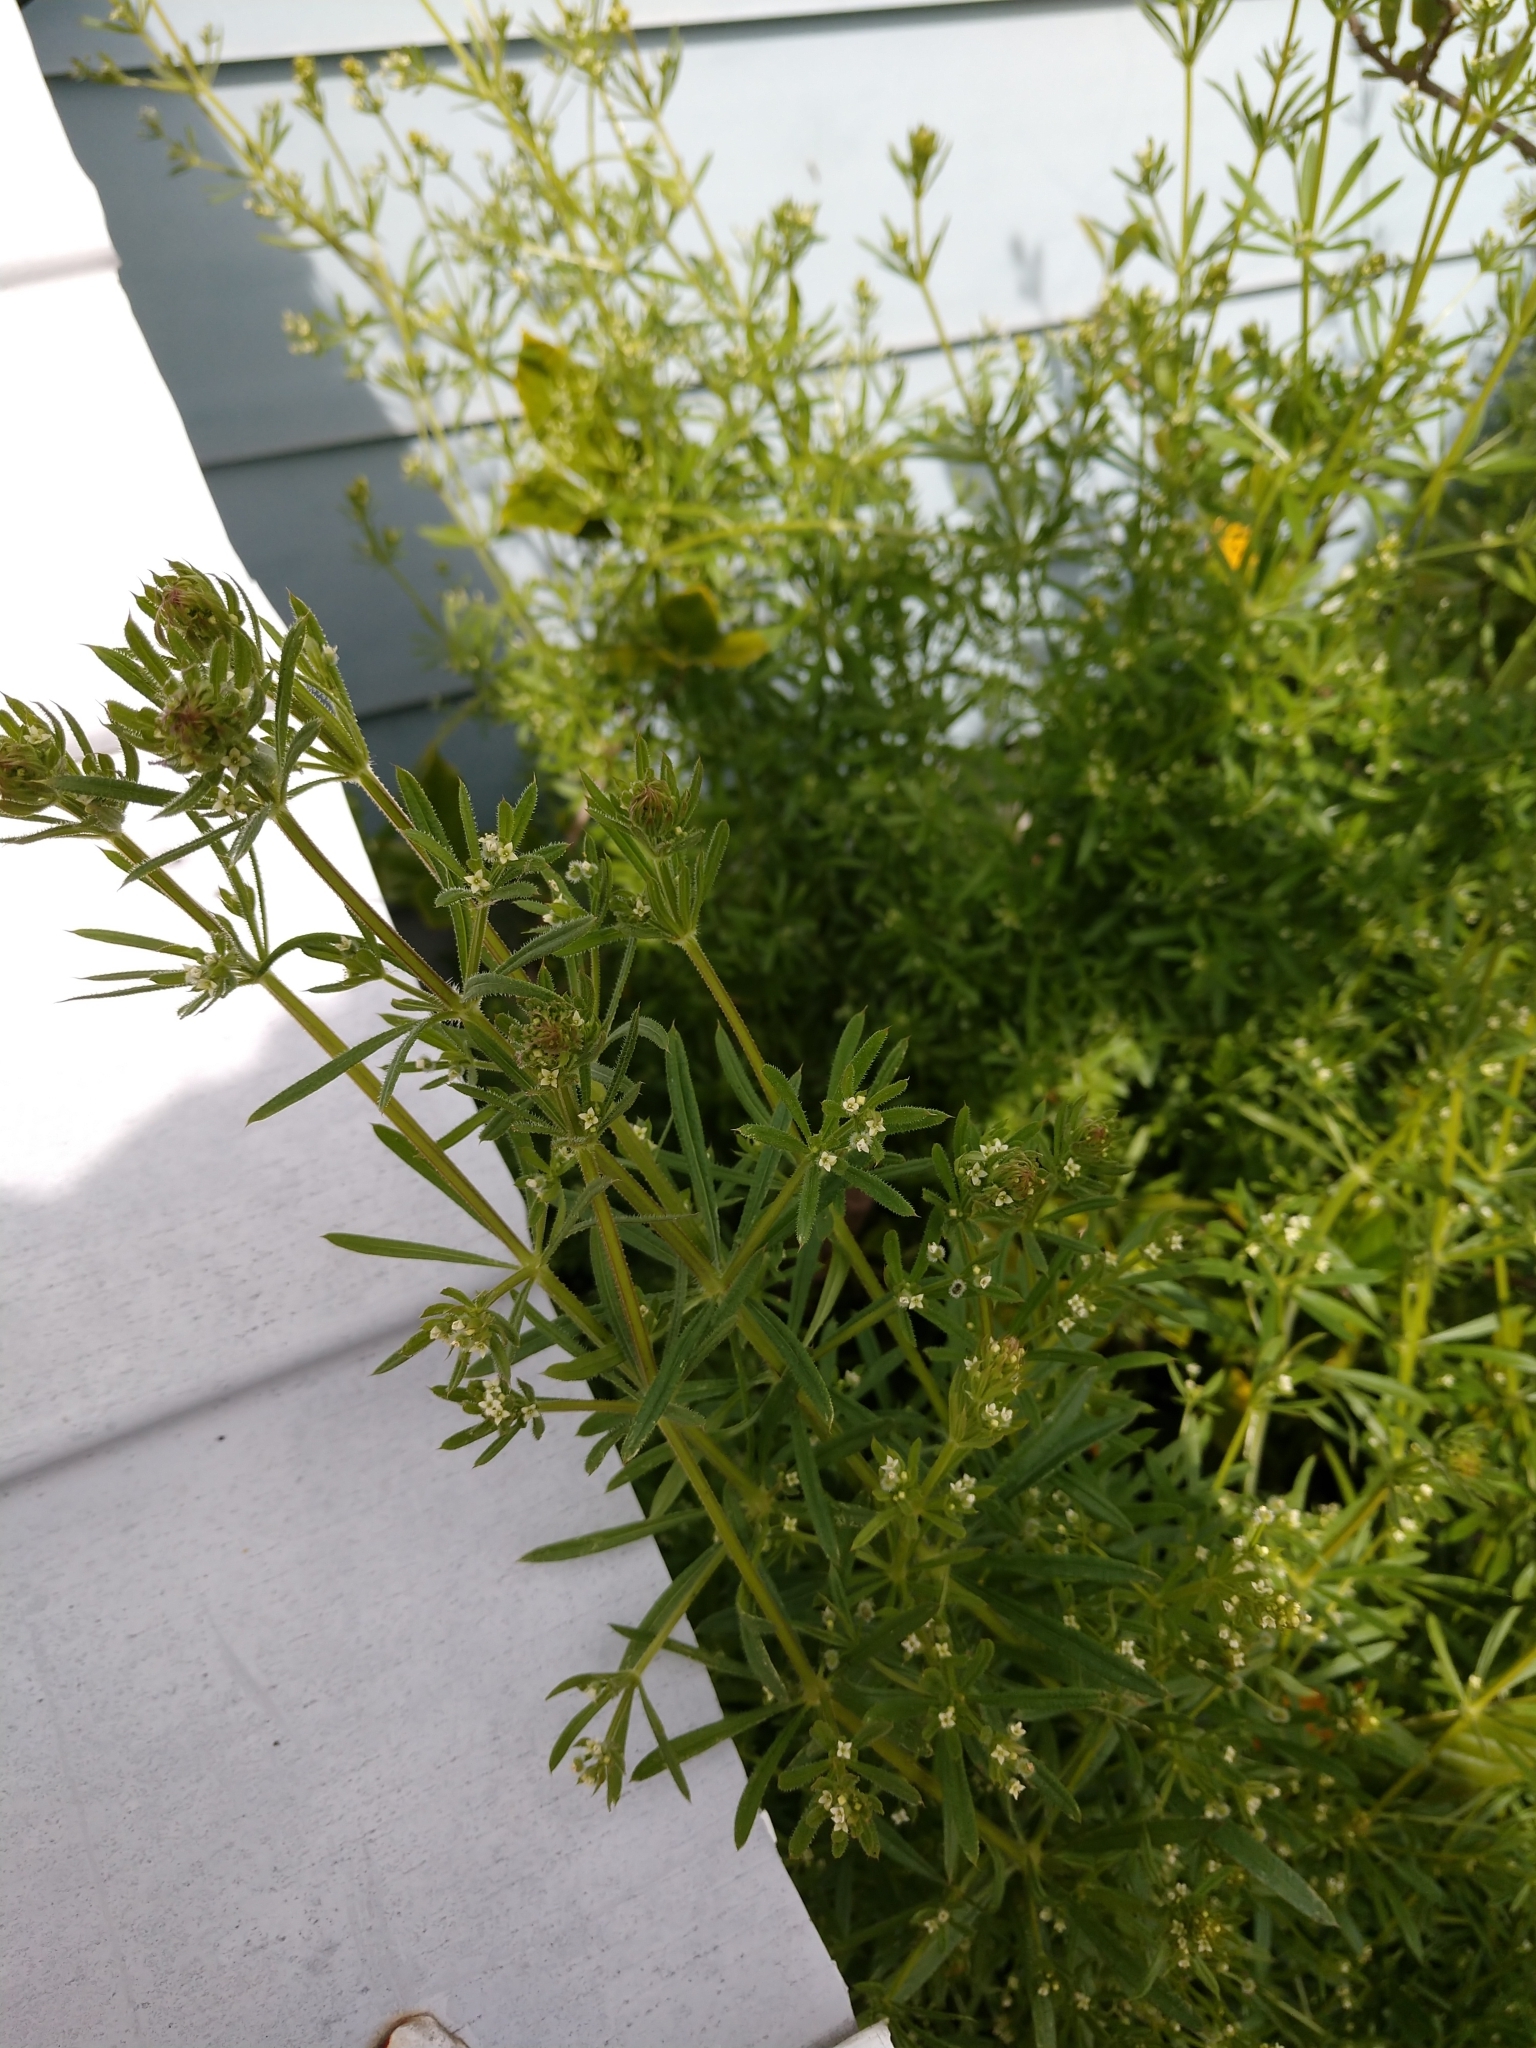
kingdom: Plantae
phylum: Tracheophyta
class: Magnoliopsida
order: Gentianales
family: Rubiaceae
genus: Galium
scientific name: Galium aparine
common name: Cleavers
